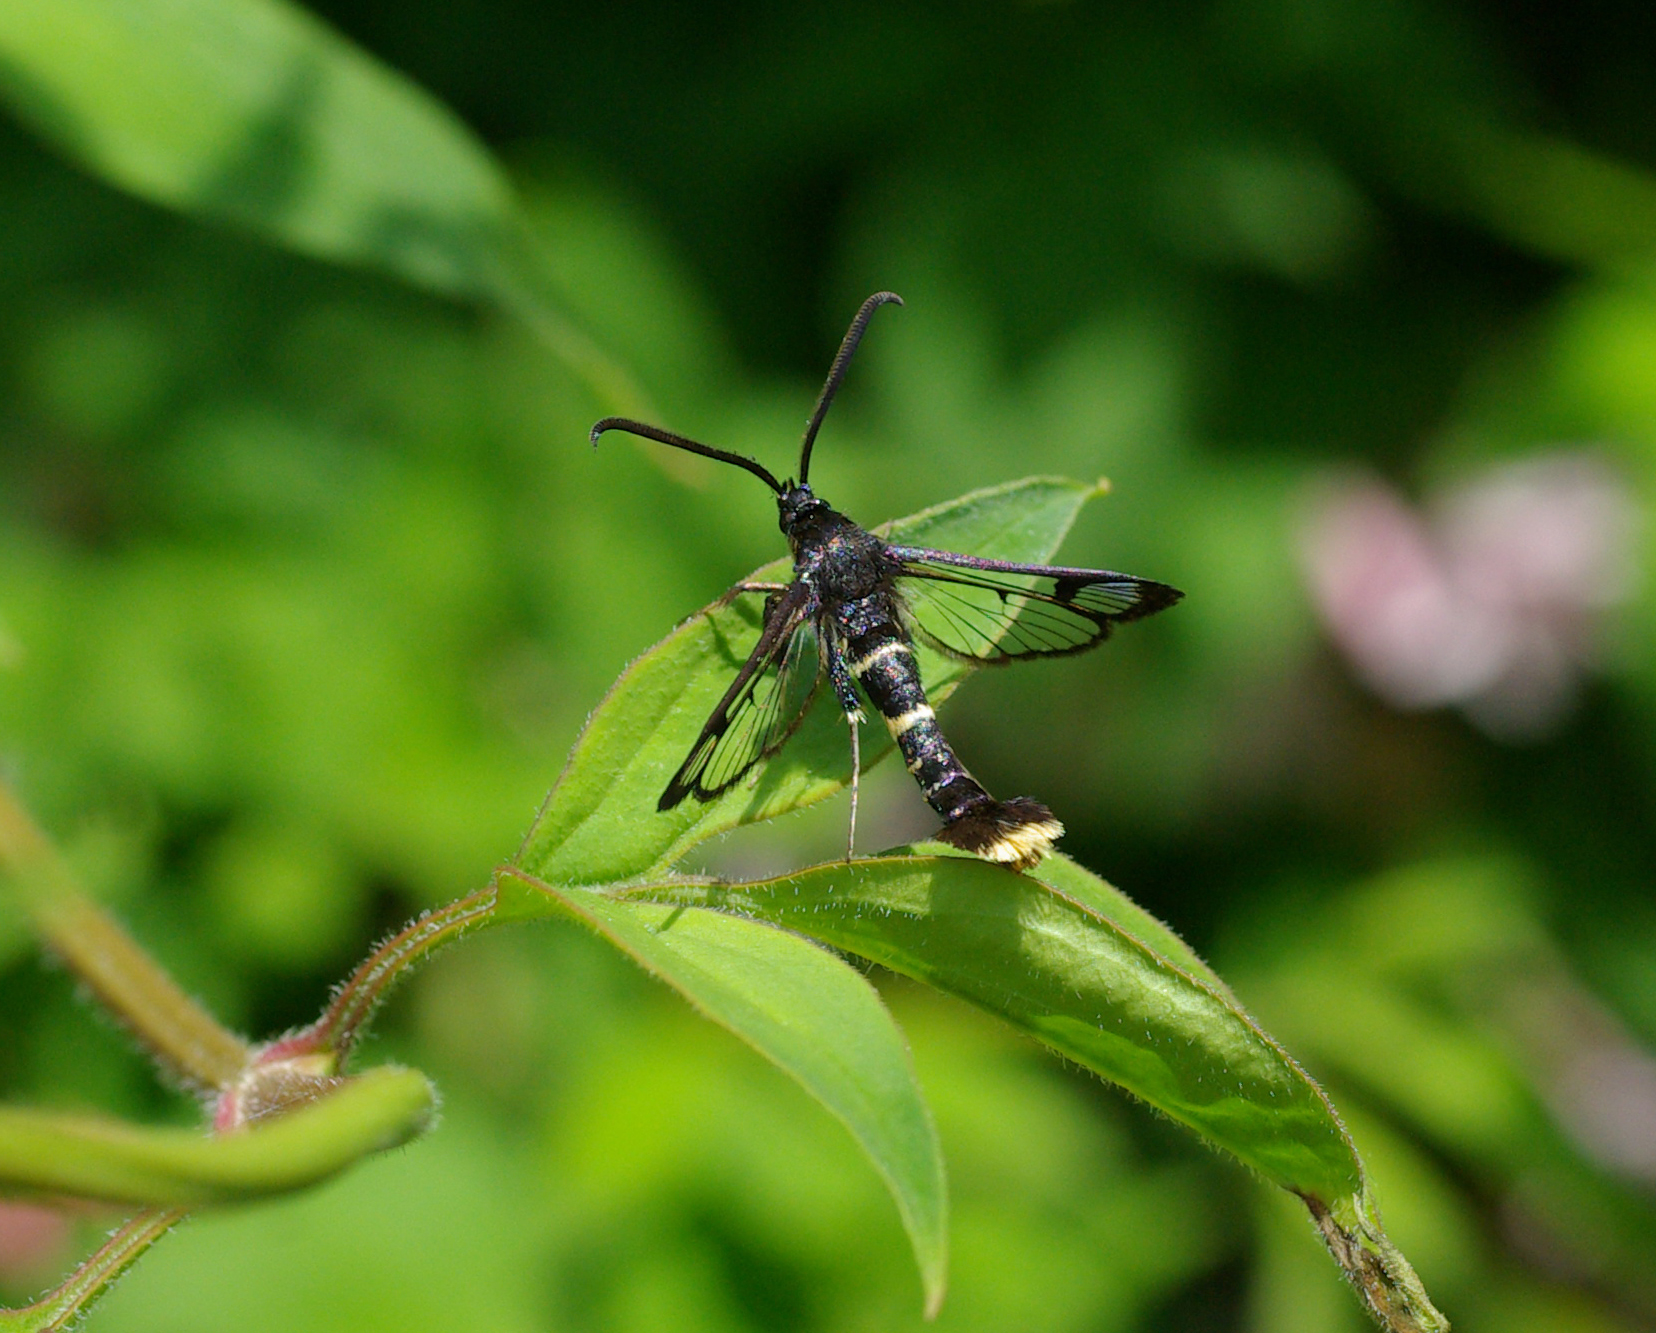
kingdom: Animalia
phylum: Arthropoda
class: Insecta
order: Lepidoptera
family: Sesiidae
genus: Synanthedon
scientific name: Synanthedon andrenaeformis
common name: Orange-tailed clearwing
